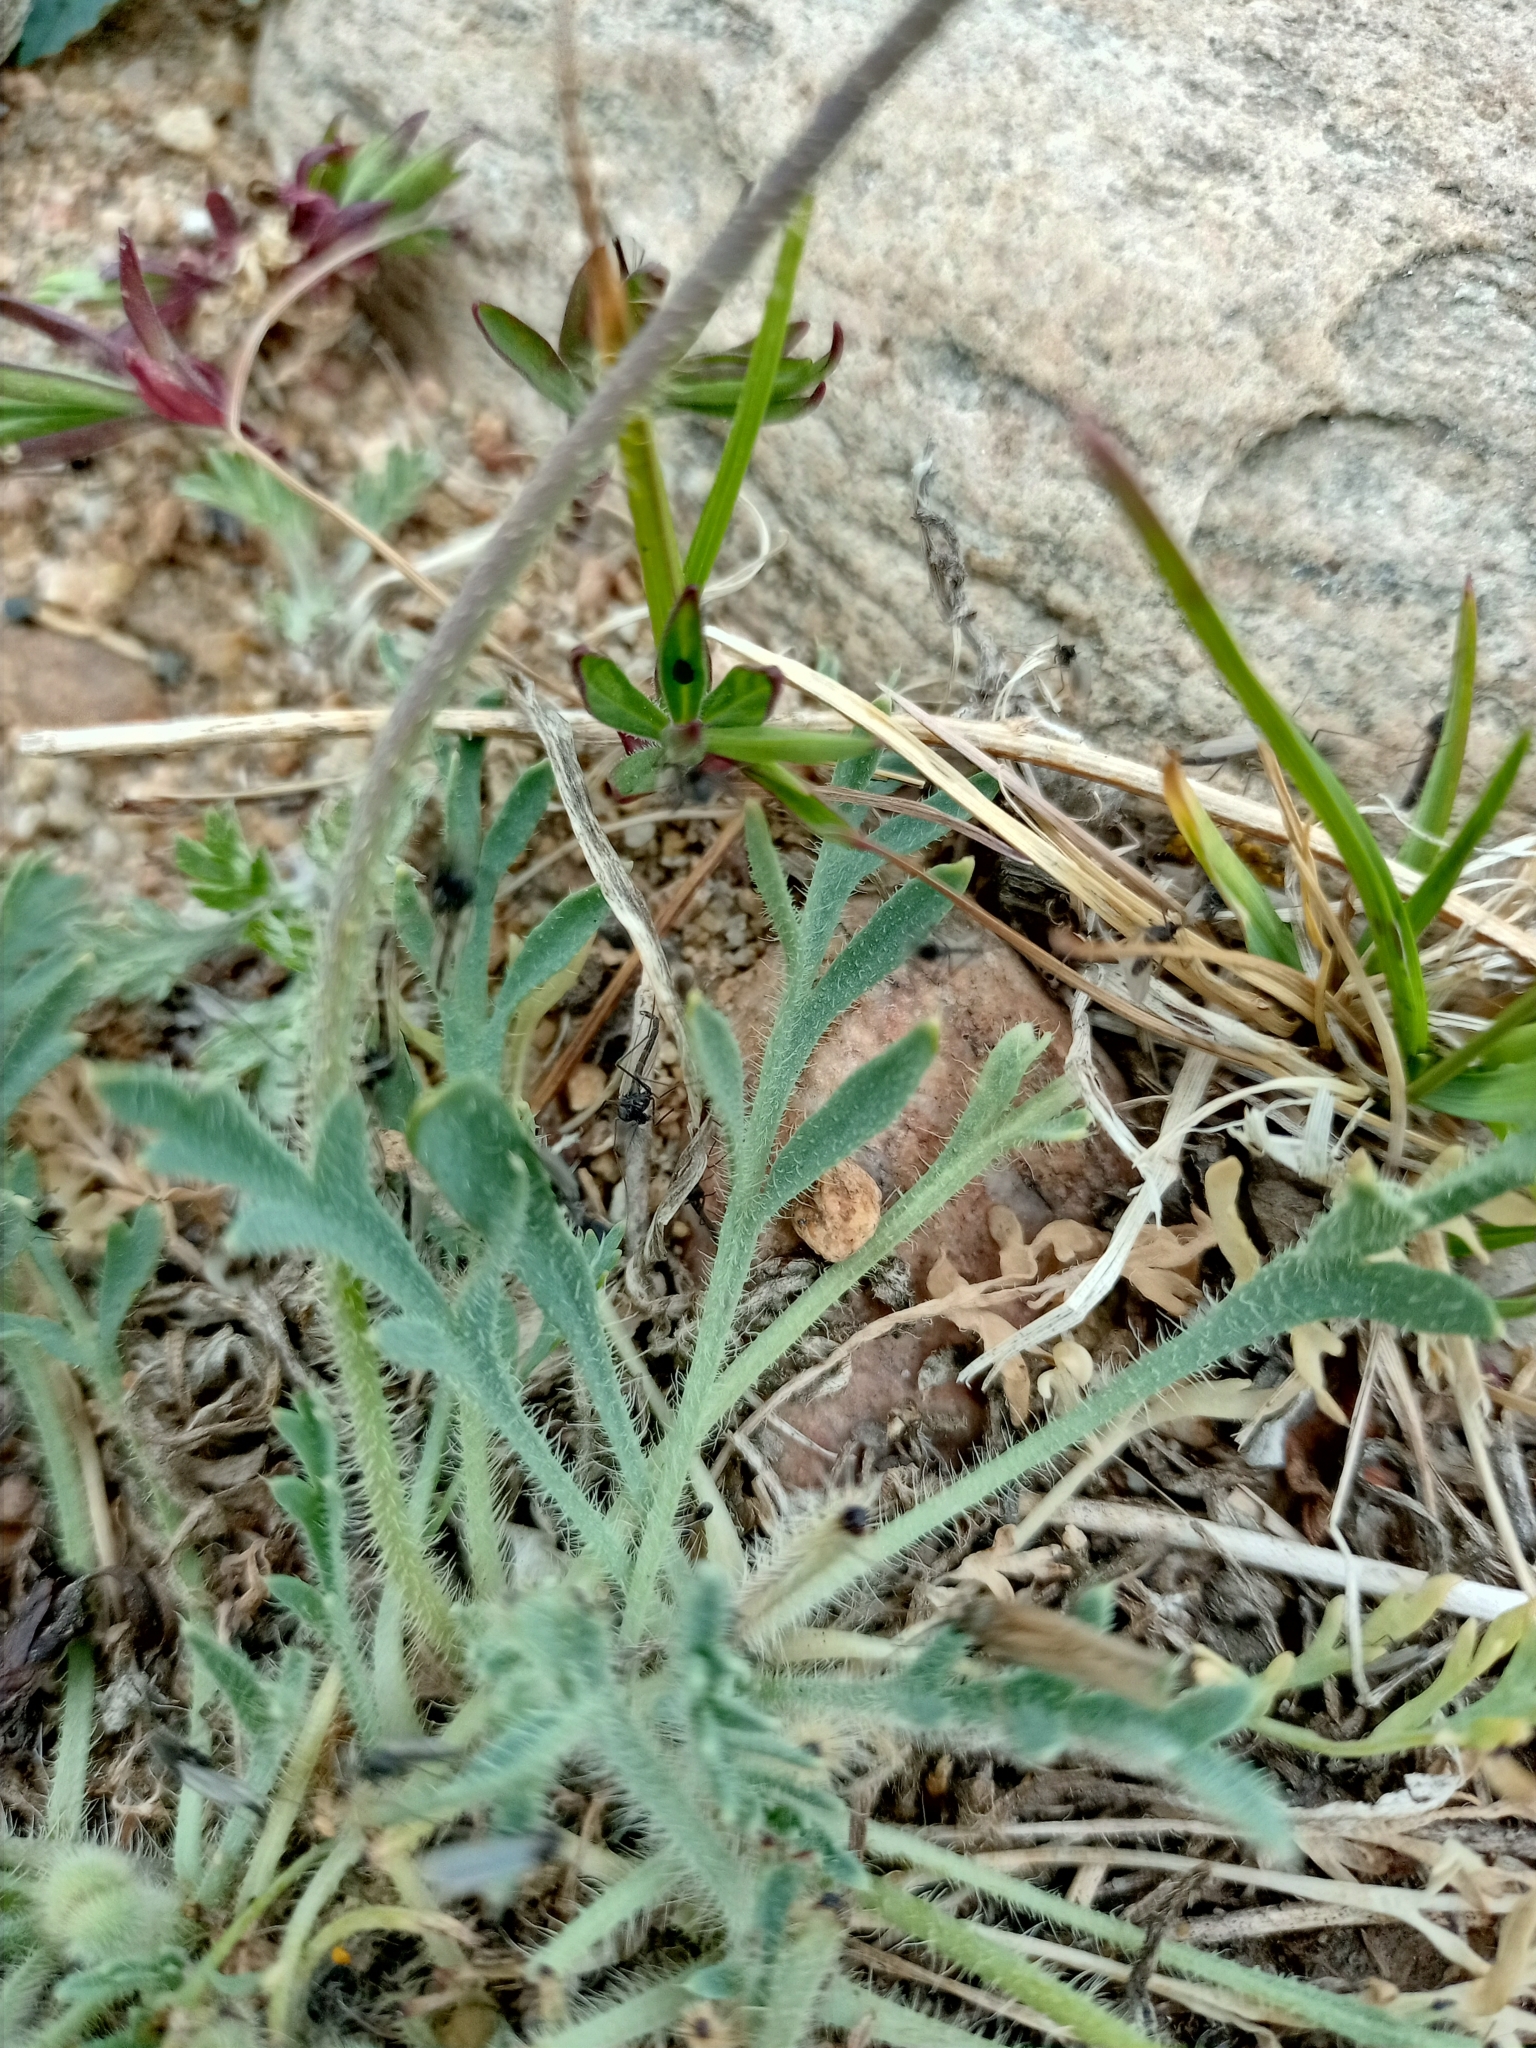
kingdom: Plantae
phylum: Tracheophyta
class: Magnoliopsida
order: Ranunculales
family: Papaveraceae
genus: Papaver
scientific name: Papaver popovii
